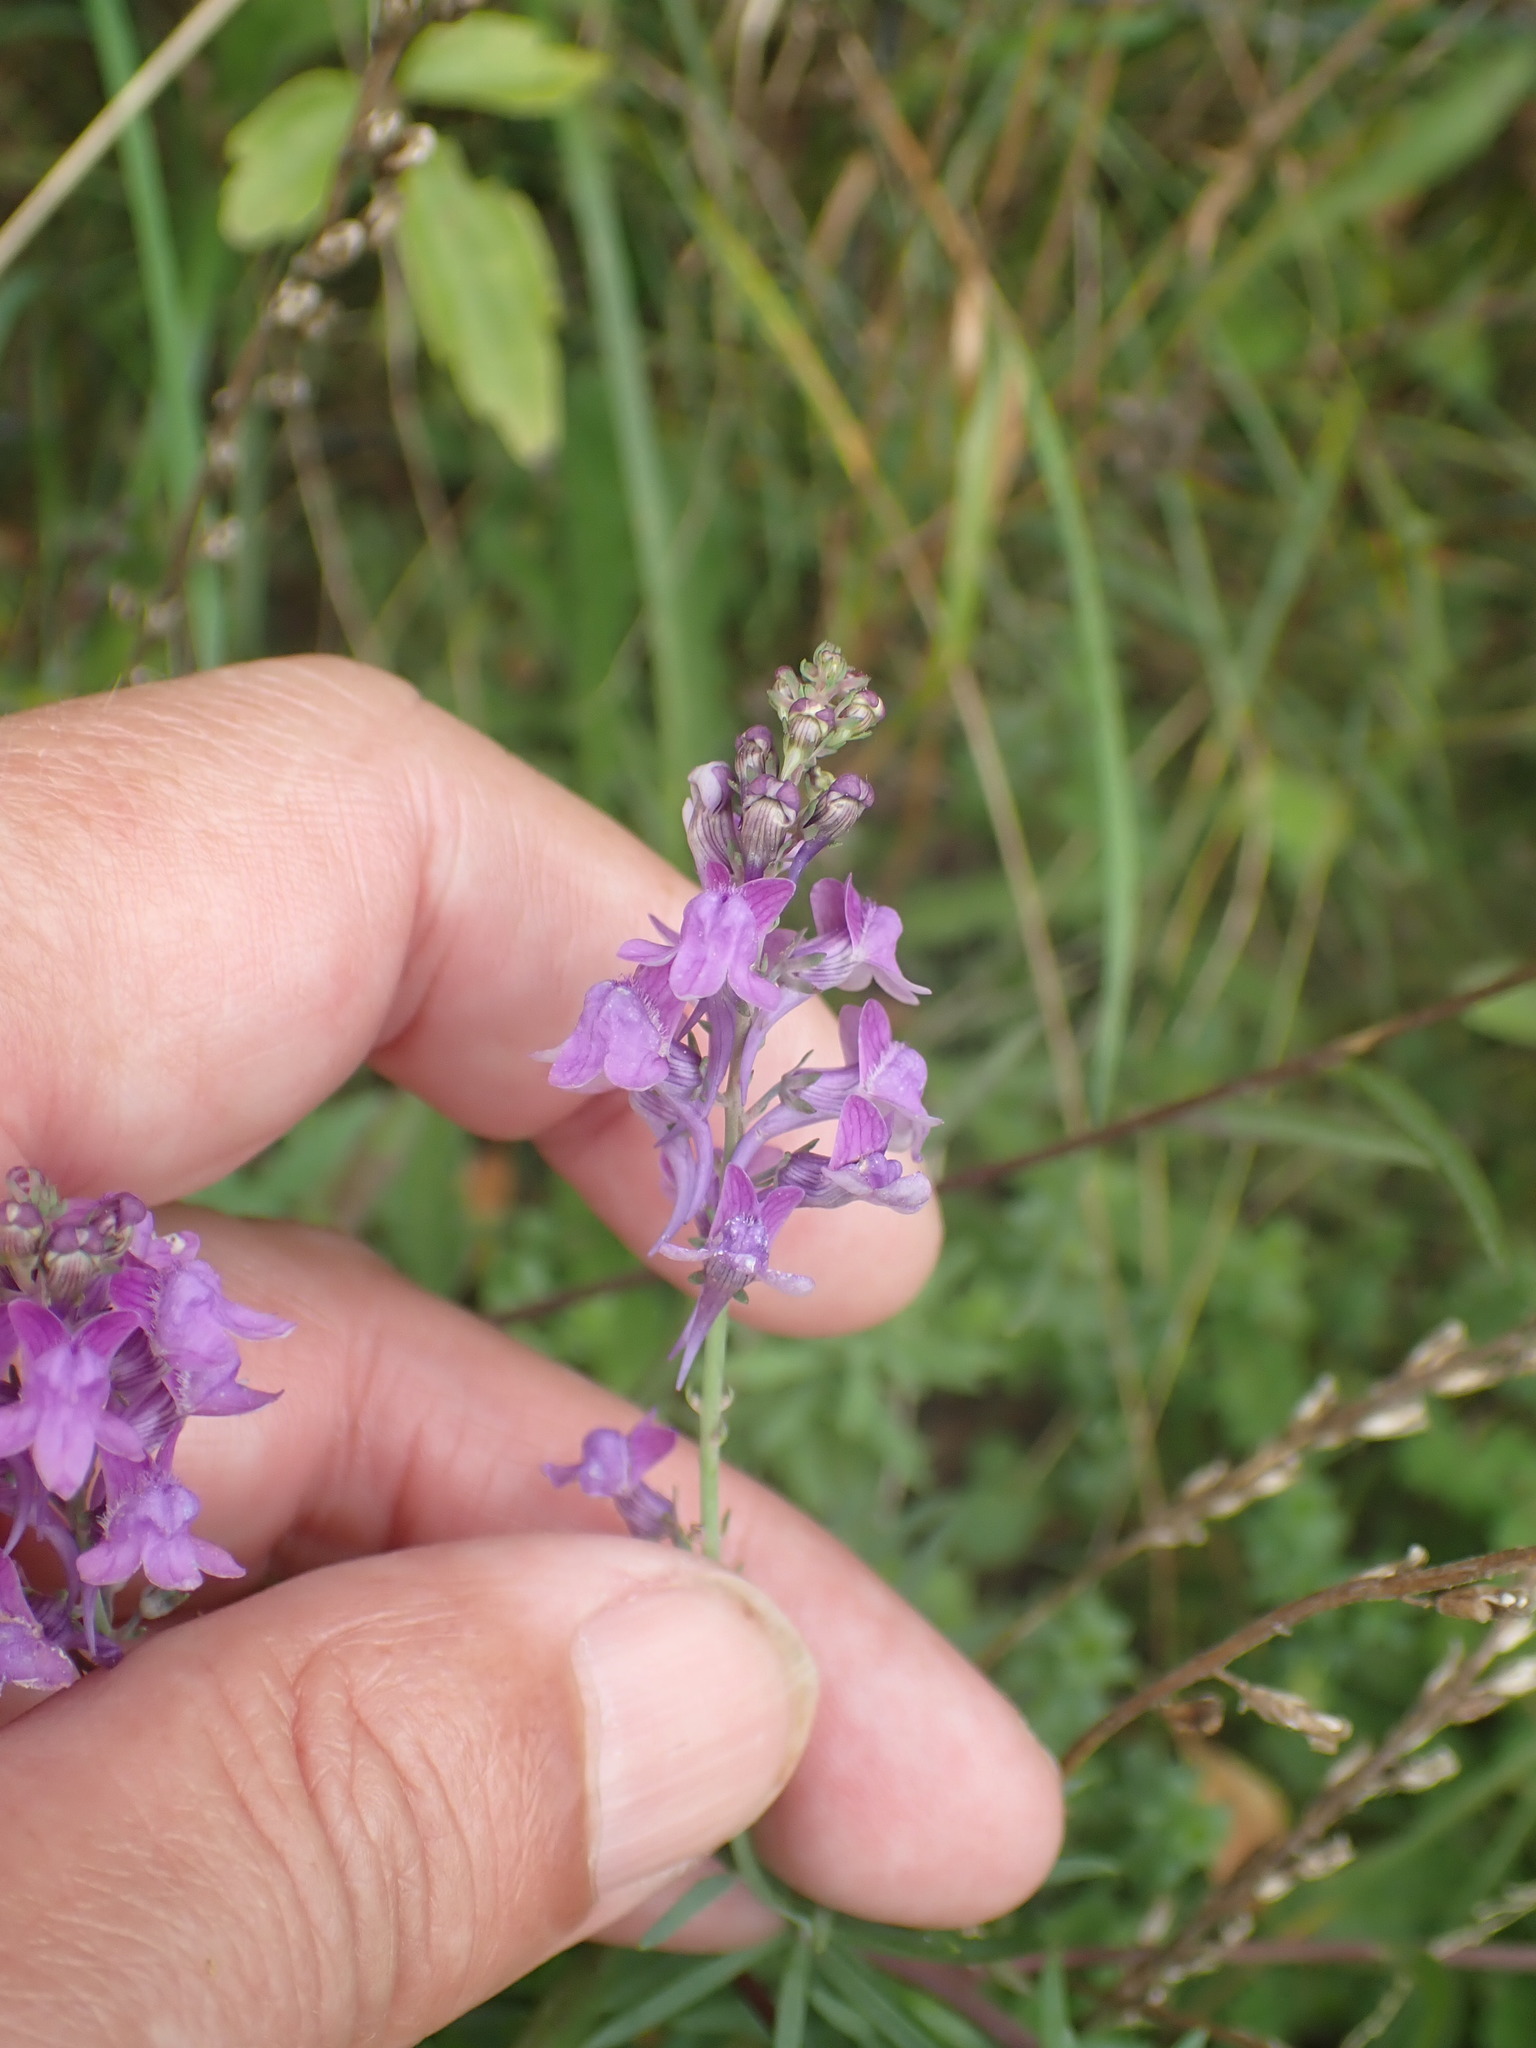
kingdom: Plantae
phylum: Tracheophyta
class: Magnoliopsida
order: Lamiales
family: Plantaginaceae
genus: Linaria
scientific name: Linaria purpurea
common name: Purple toadflax
